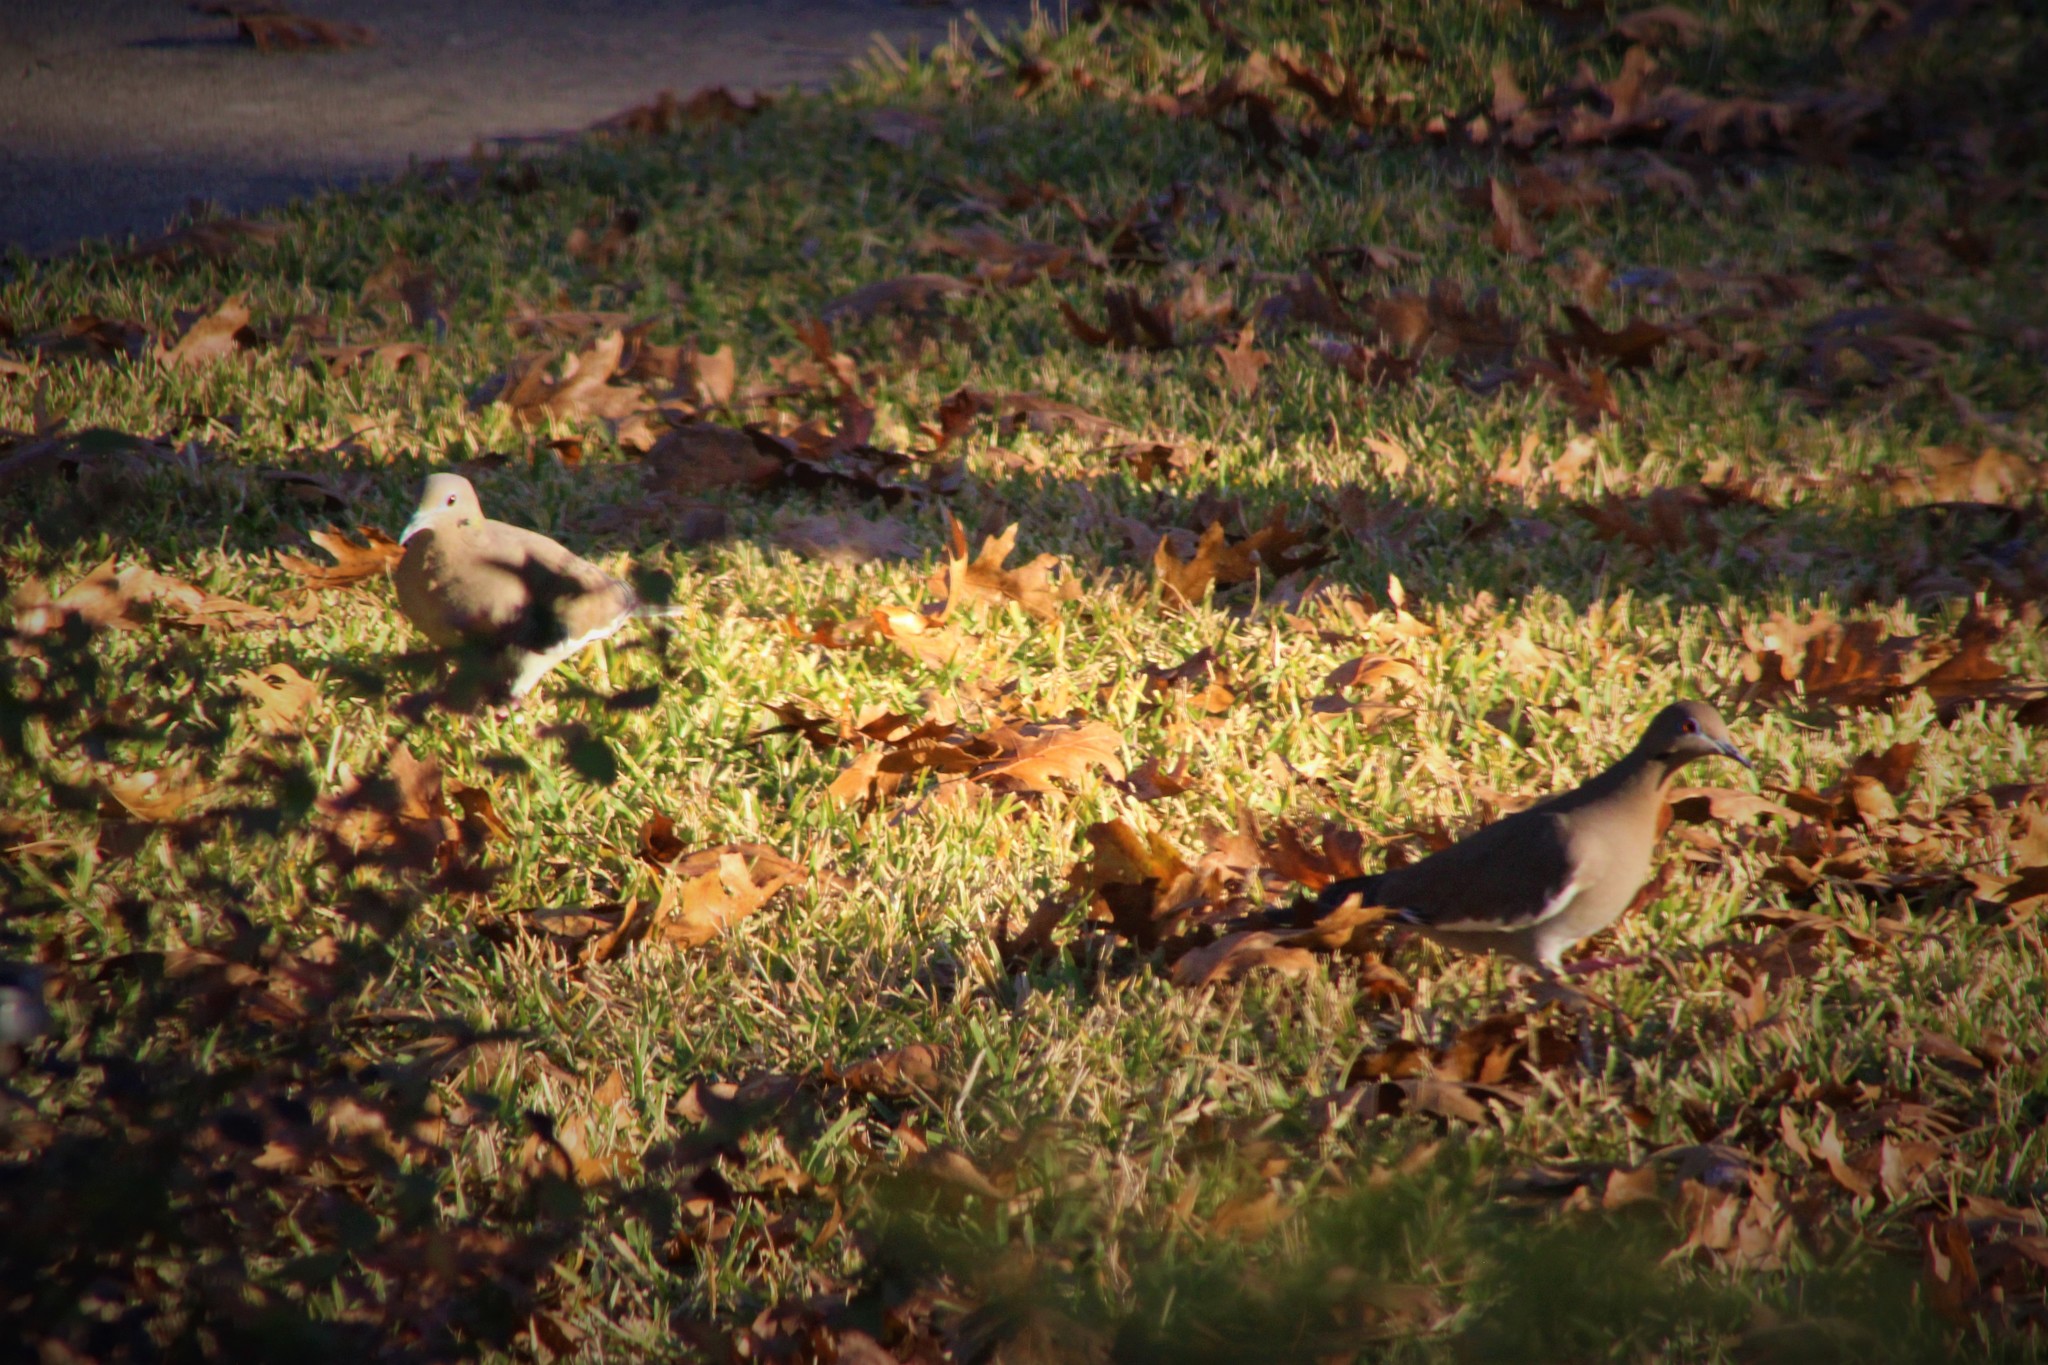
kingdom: Animalia
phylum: Chordata
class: Aves
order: Columbiformes
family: Columbidae
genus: Zenaida
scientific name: Zenaida asiatica
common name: White-winged dove
